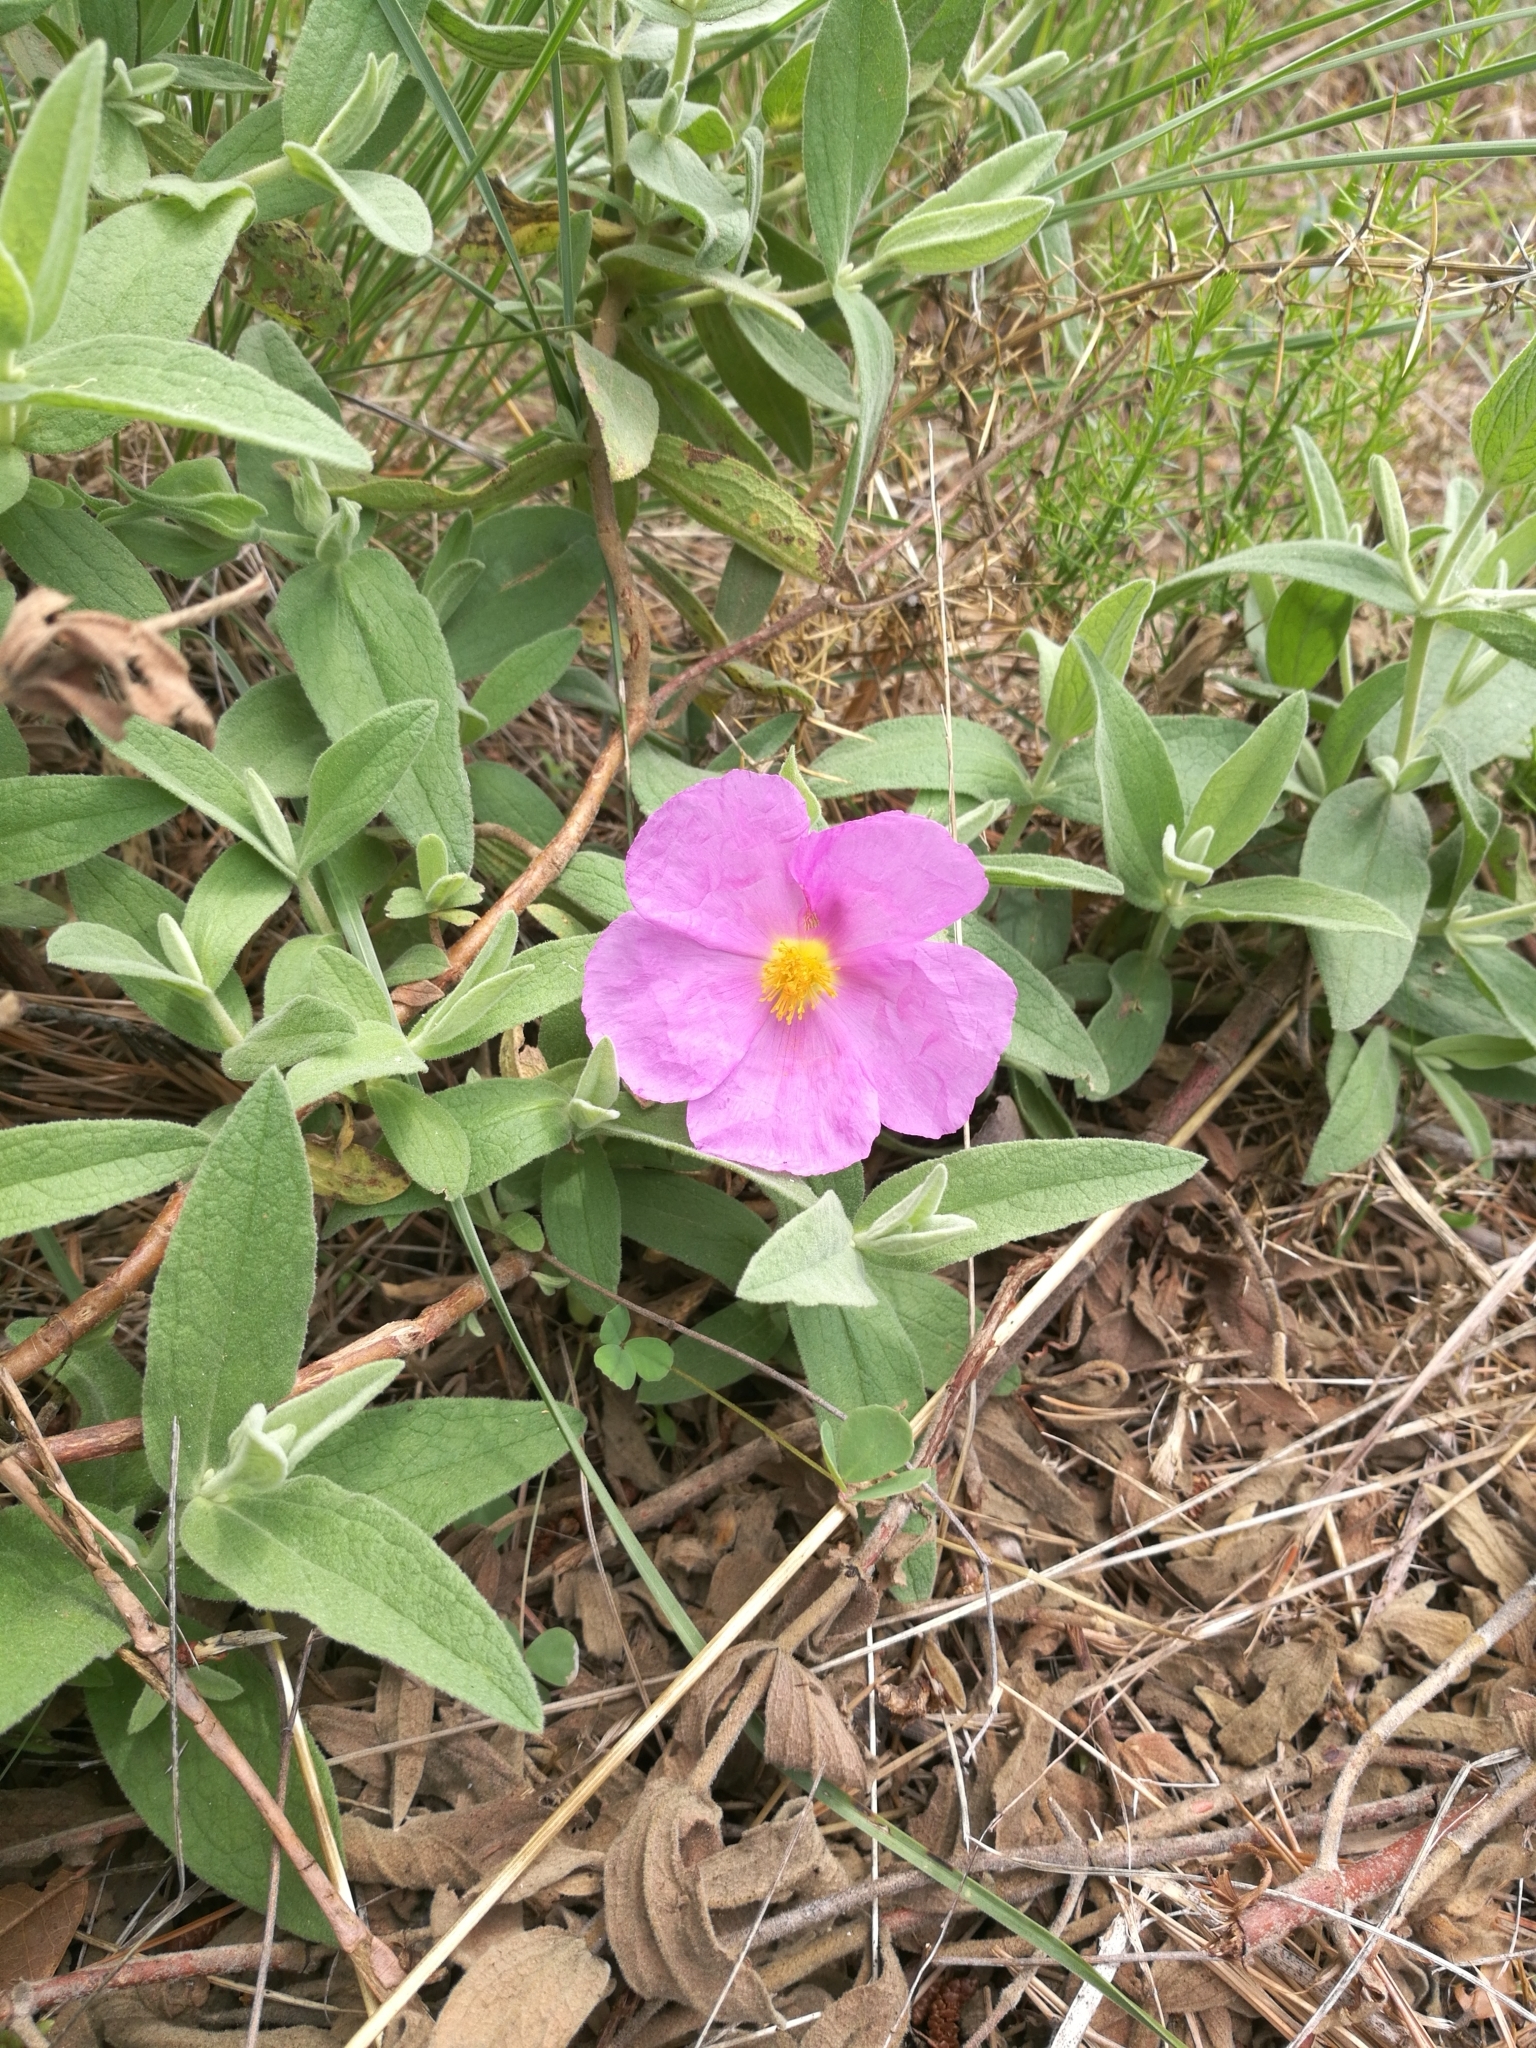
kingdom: Plantae
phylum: Tracheophyta
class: Magnoliopsida
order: Malvales
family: Cistaceae
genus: Cistus
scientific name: Cistus albidus
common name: White-leaf rock-rose
